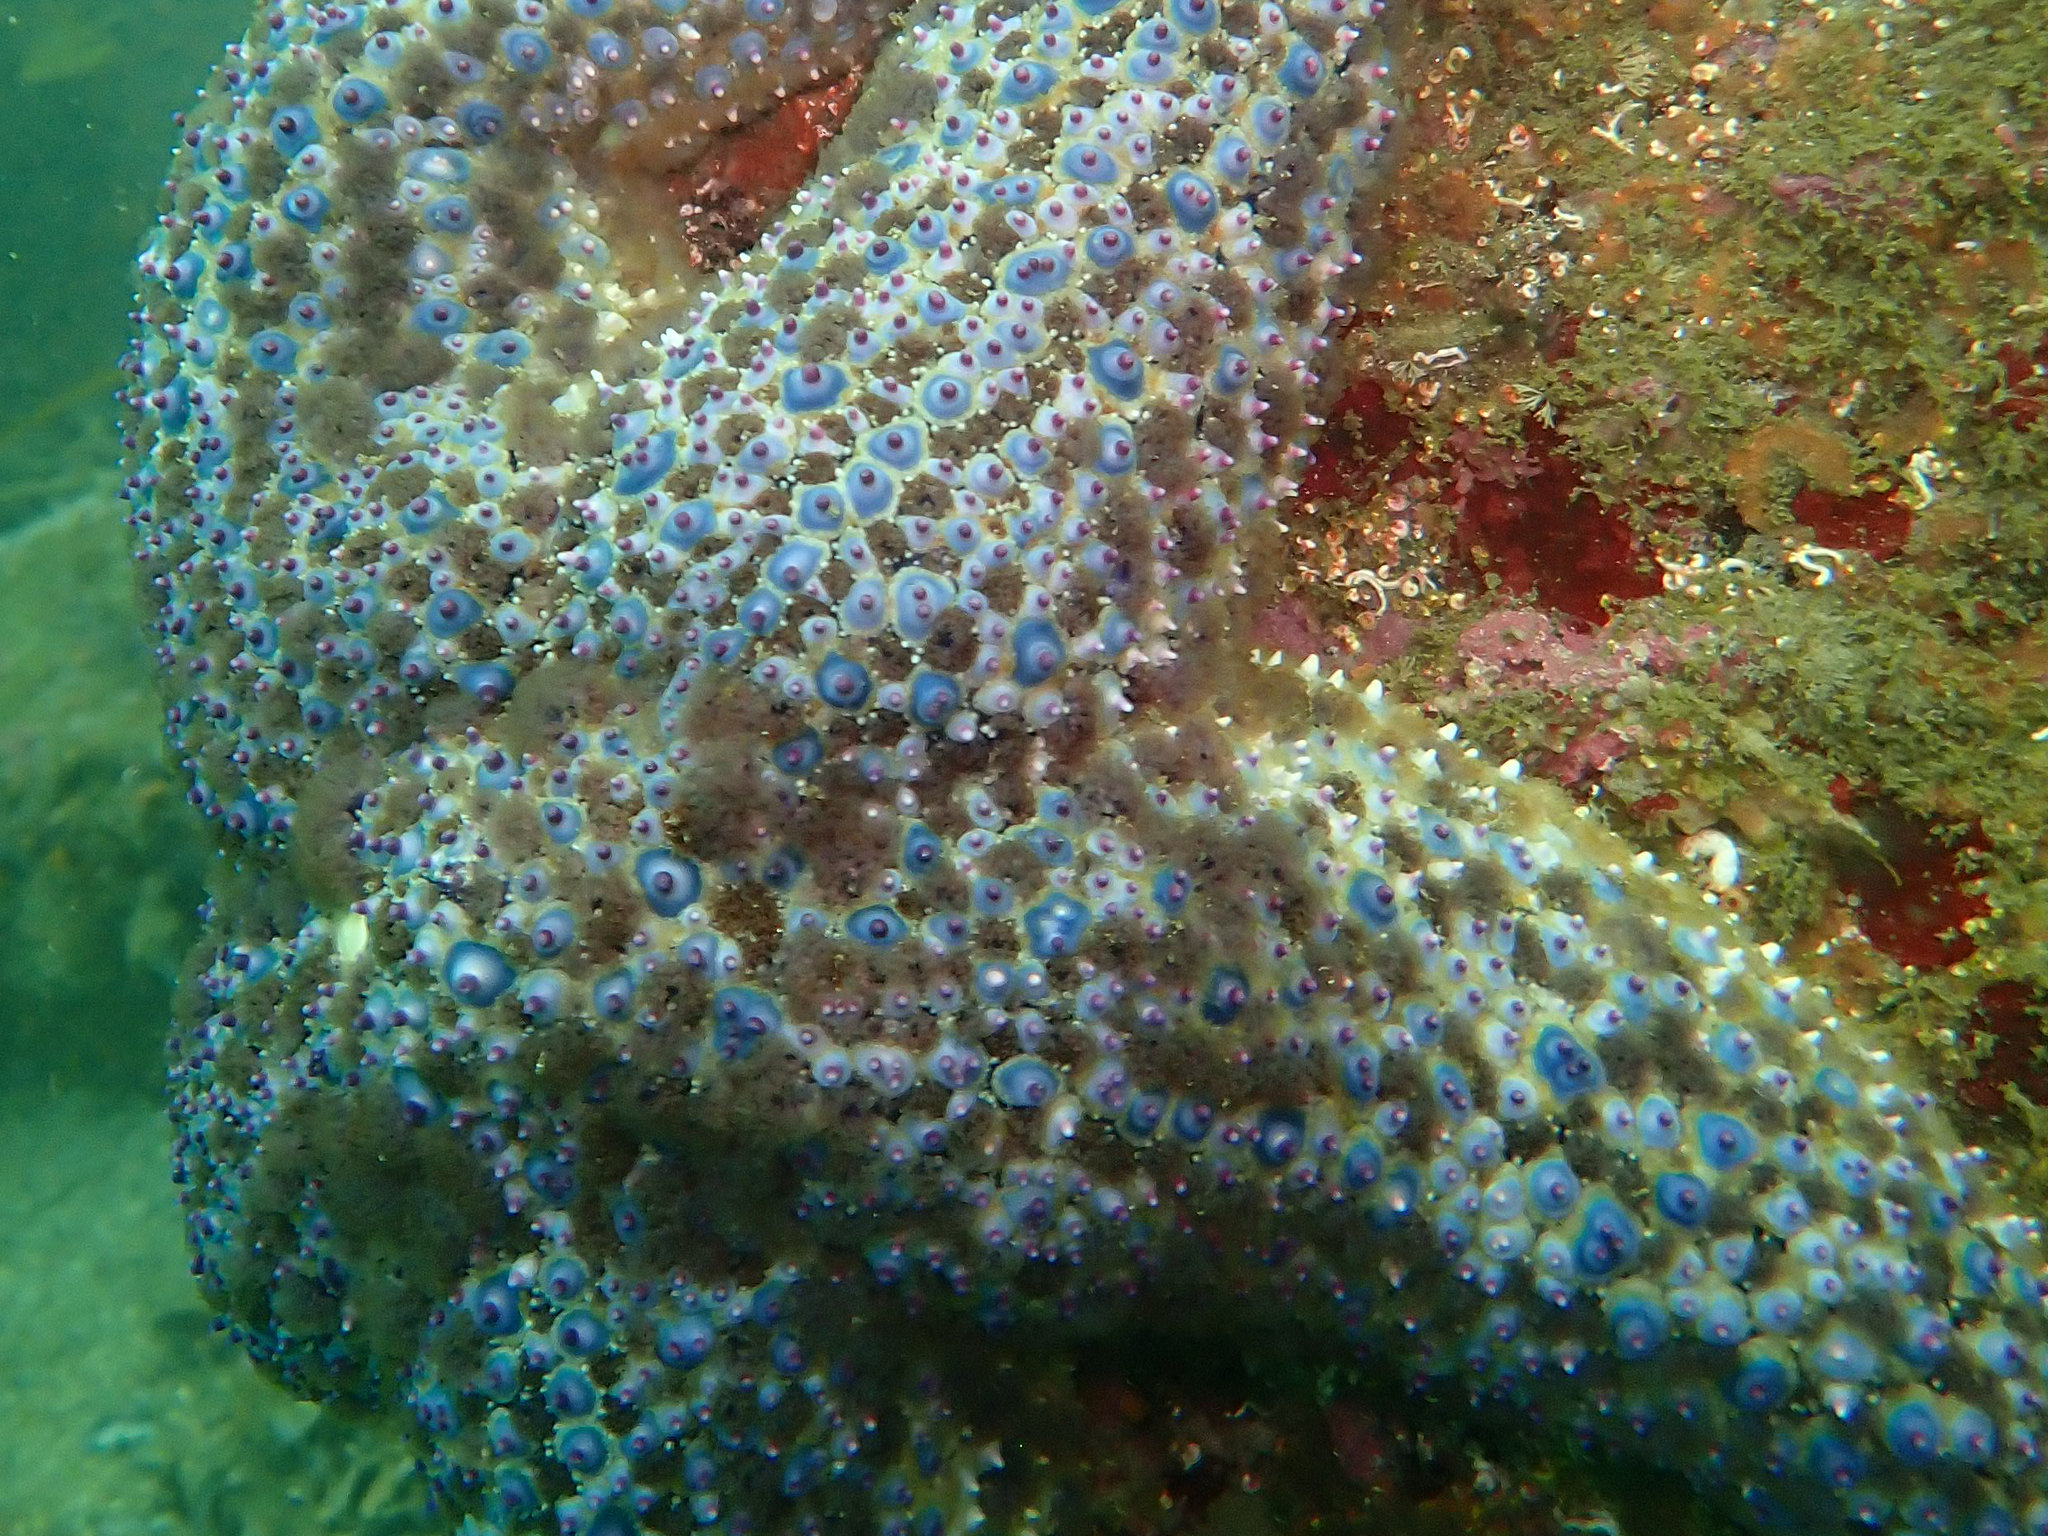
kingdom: Animalia
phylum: Echinodermata
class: Asteroidea
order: Forcipulatida
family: Asteriidae
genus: Pisaster
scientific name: Pisaster giganteus
